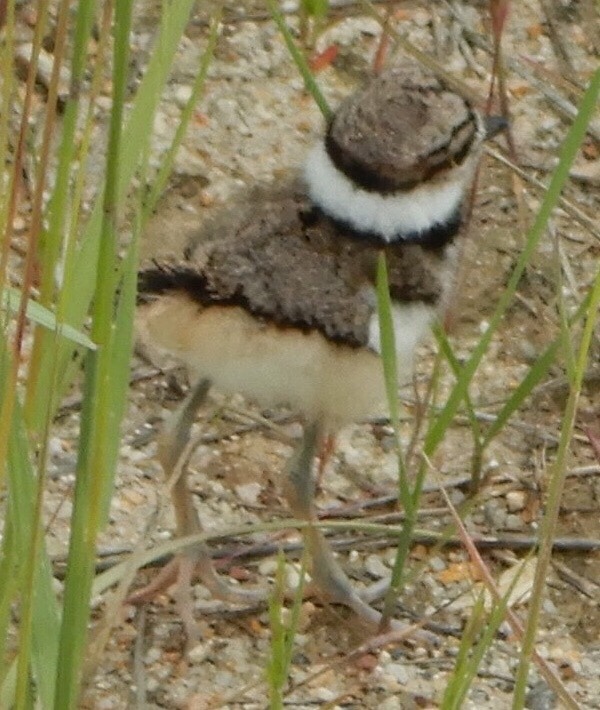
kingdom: Animalia
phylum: Chordata
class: Aves
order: Charadriiformes
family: Charadriidae
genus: Charadrius
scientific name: Charadrius vociferus
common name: Killdeer
